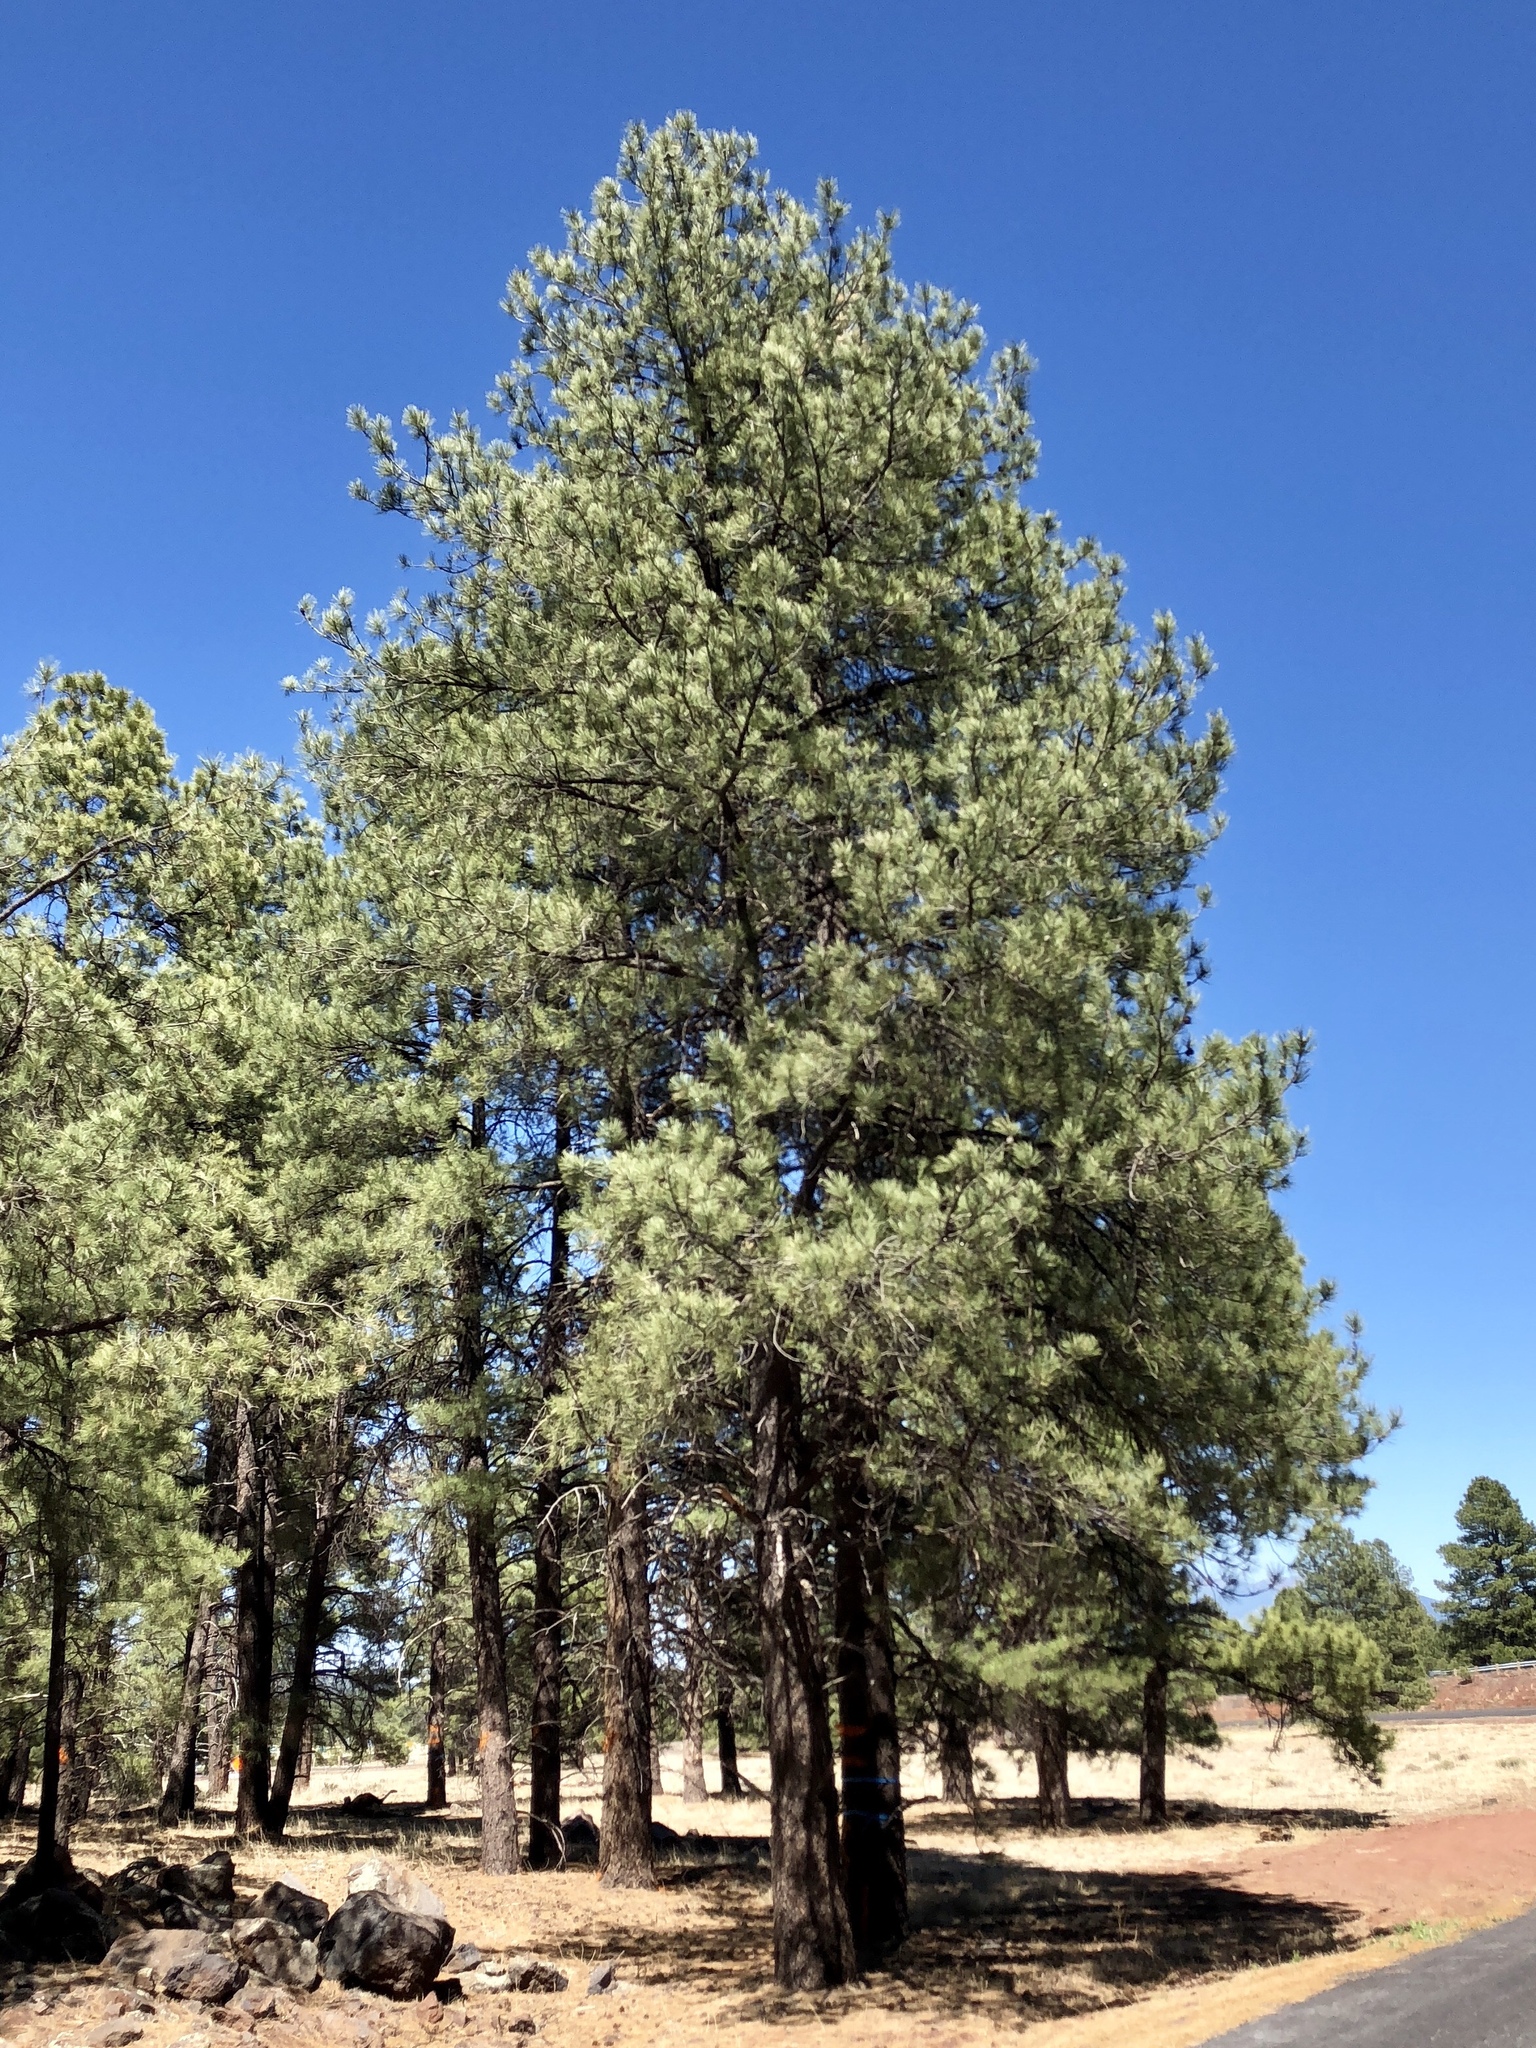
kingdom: Plantae
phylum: Tracheophyta
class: Pinopsida
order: Pinales
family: Pinaceae
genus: Pinus
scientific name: Pinus ponderosa
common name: Western yellow-pine
